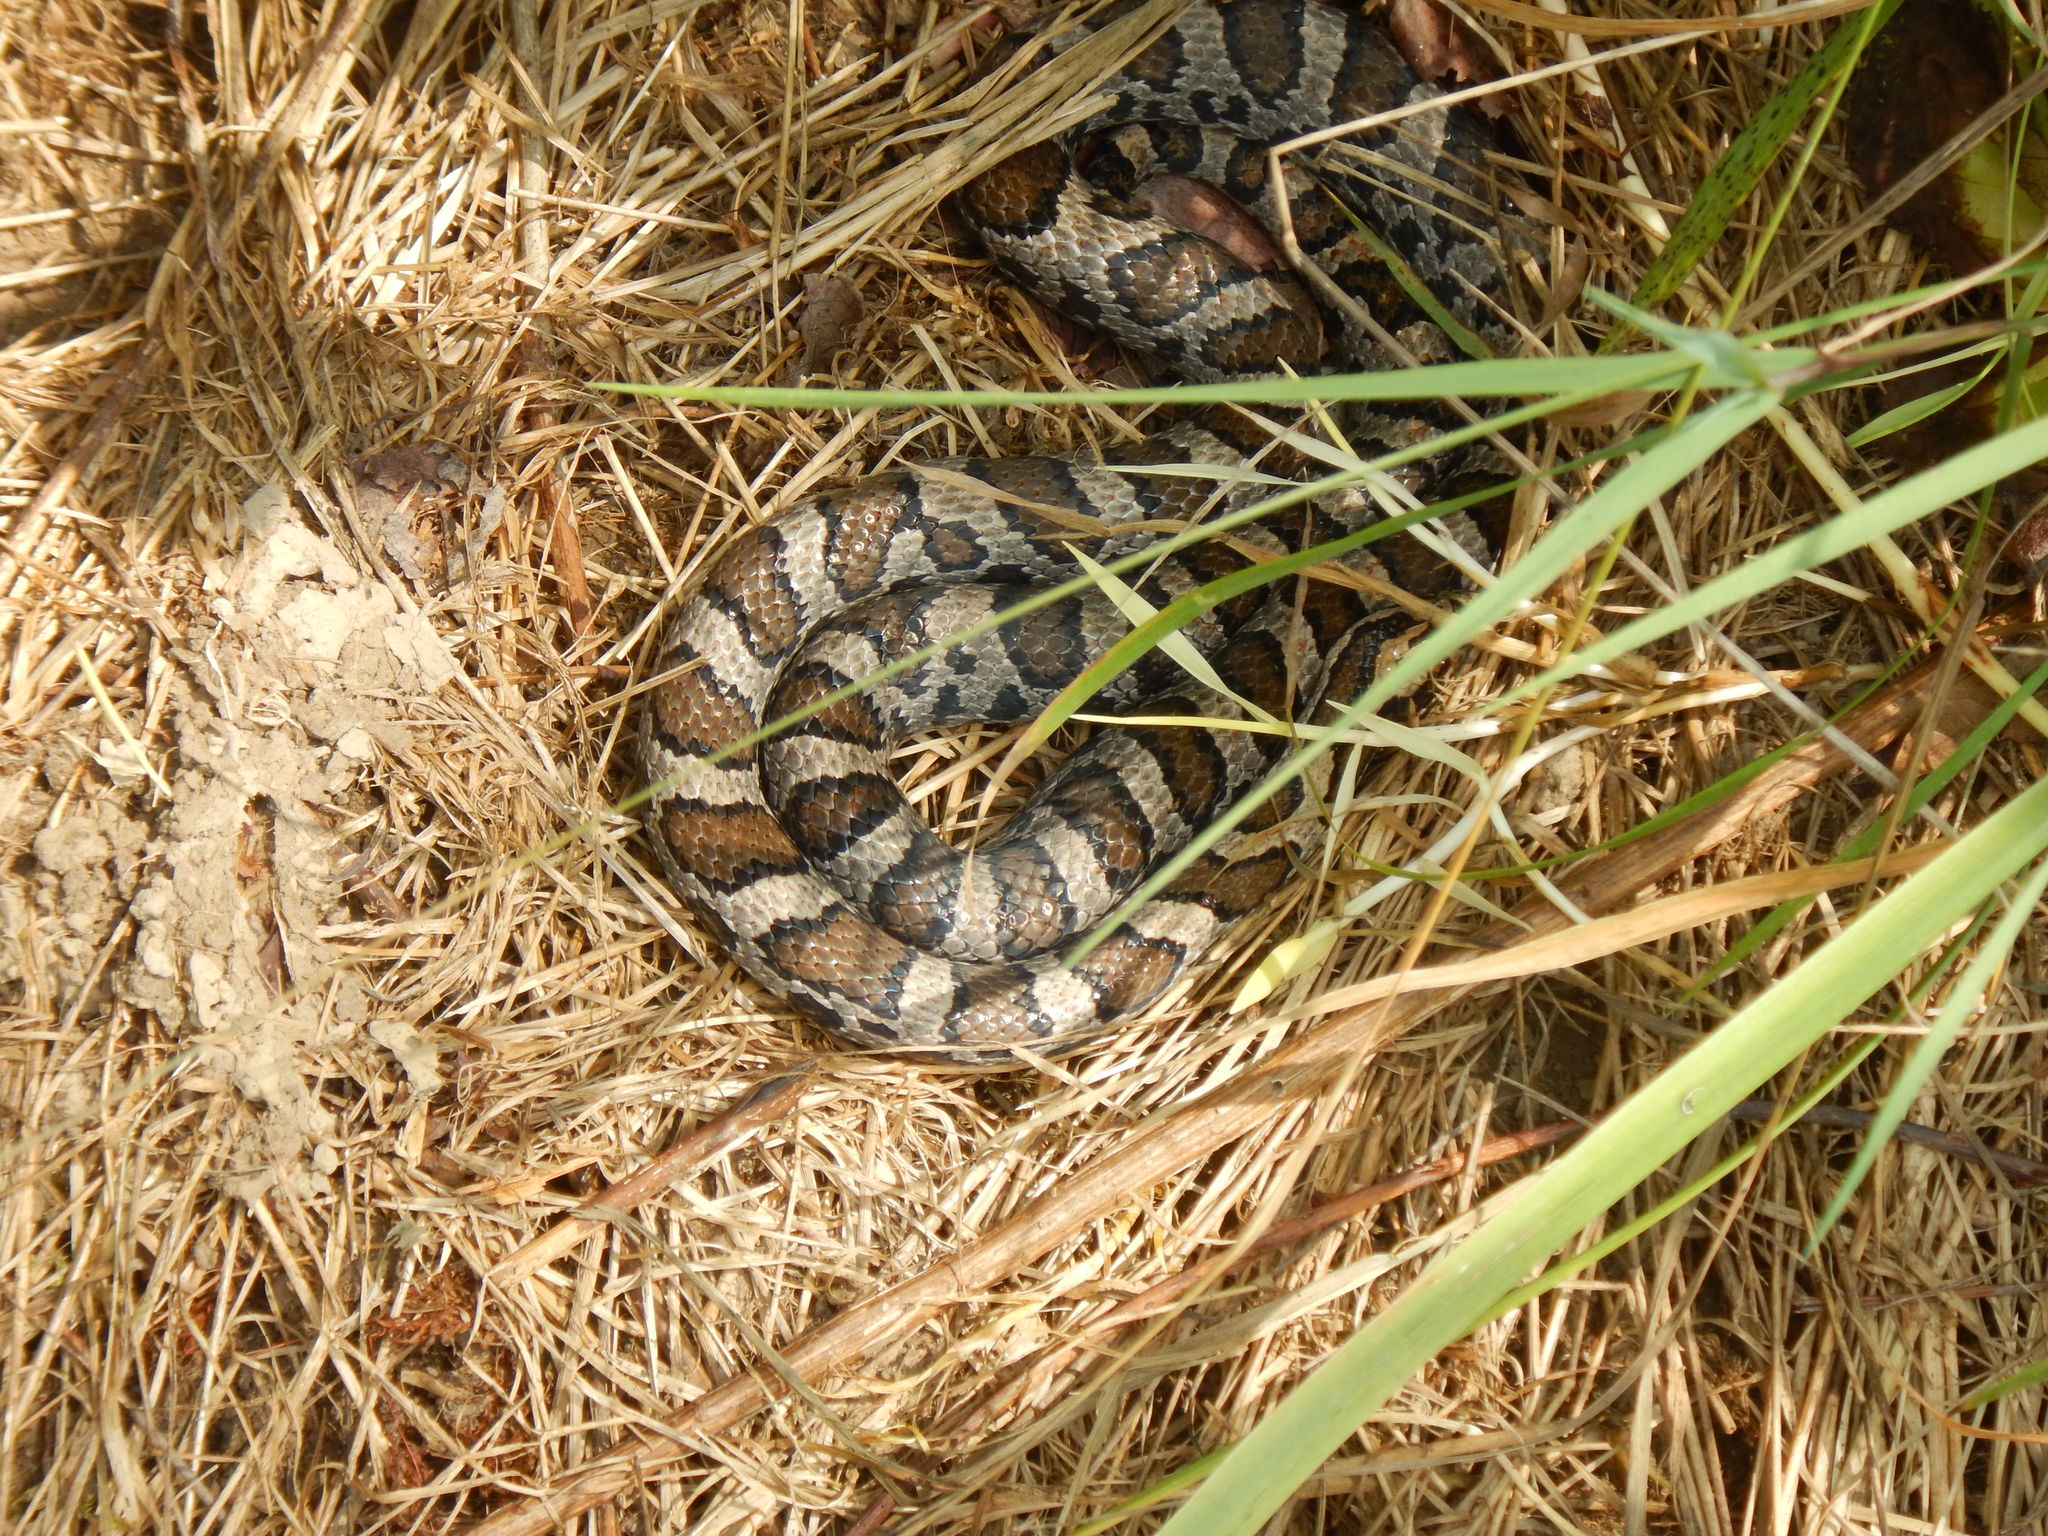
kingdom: Animalia
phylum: Chordata
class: Squamata
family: Colubridae
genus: Lampropeltis
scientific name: Lampropeltis triangulum
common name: Eastern milksnake
